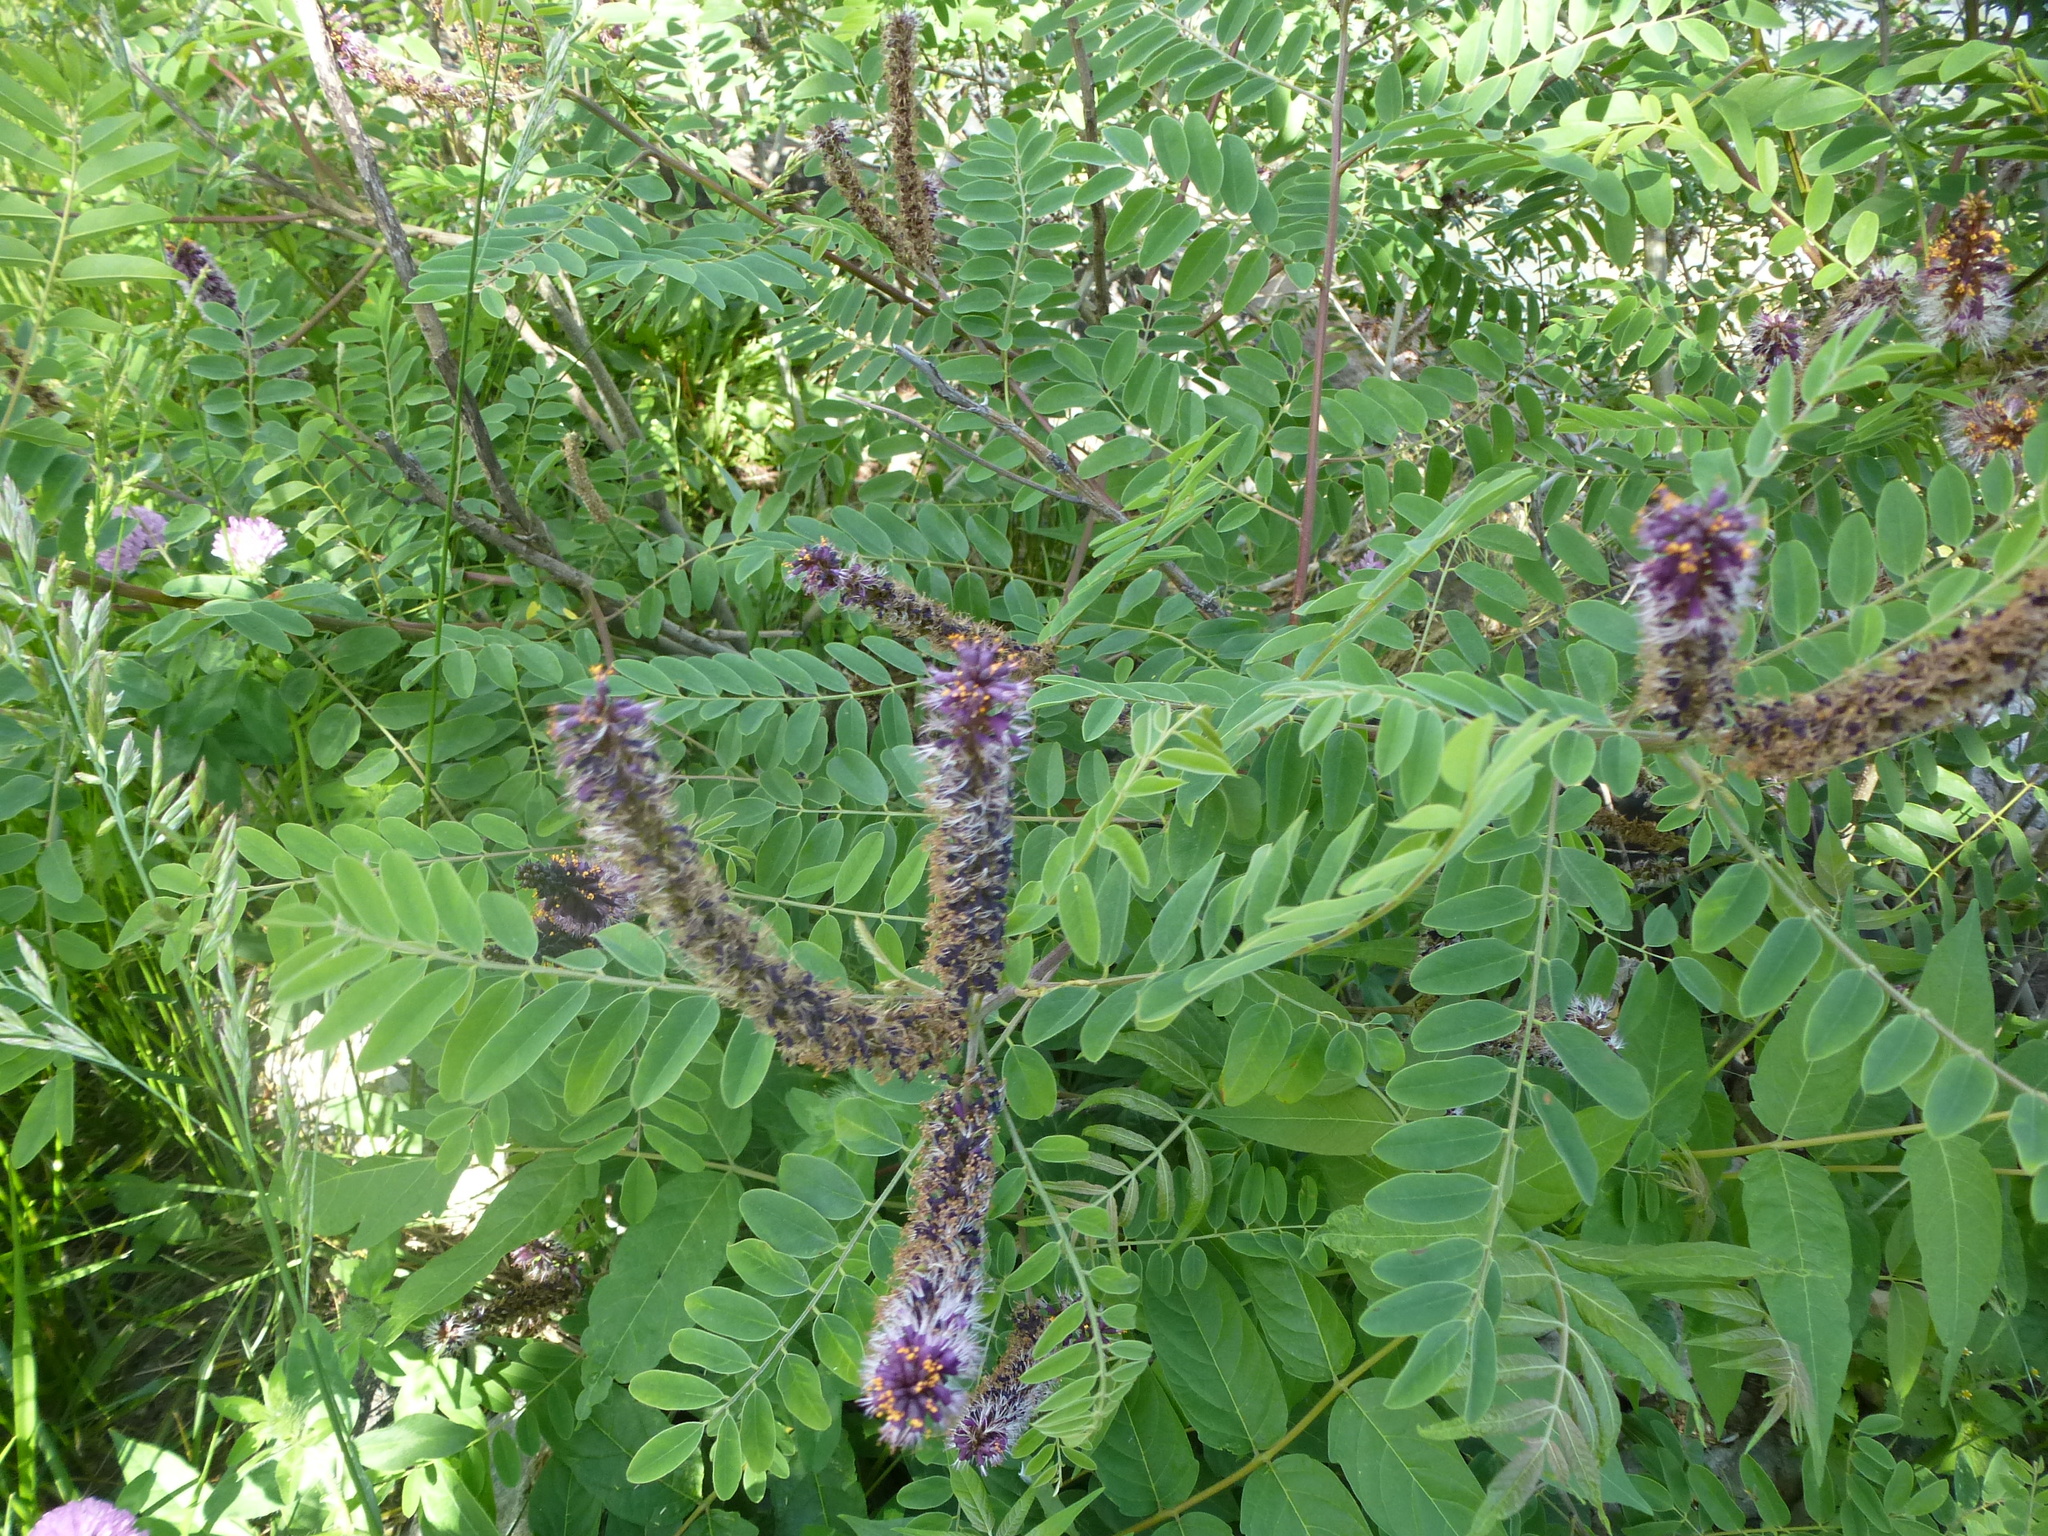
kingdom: Plantae
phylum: Tracheophyta
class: Magnoliopsida
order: Fabales
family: Fabaceae
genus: Amorpha
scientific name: Amorpha fruticosa
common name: False indigo
